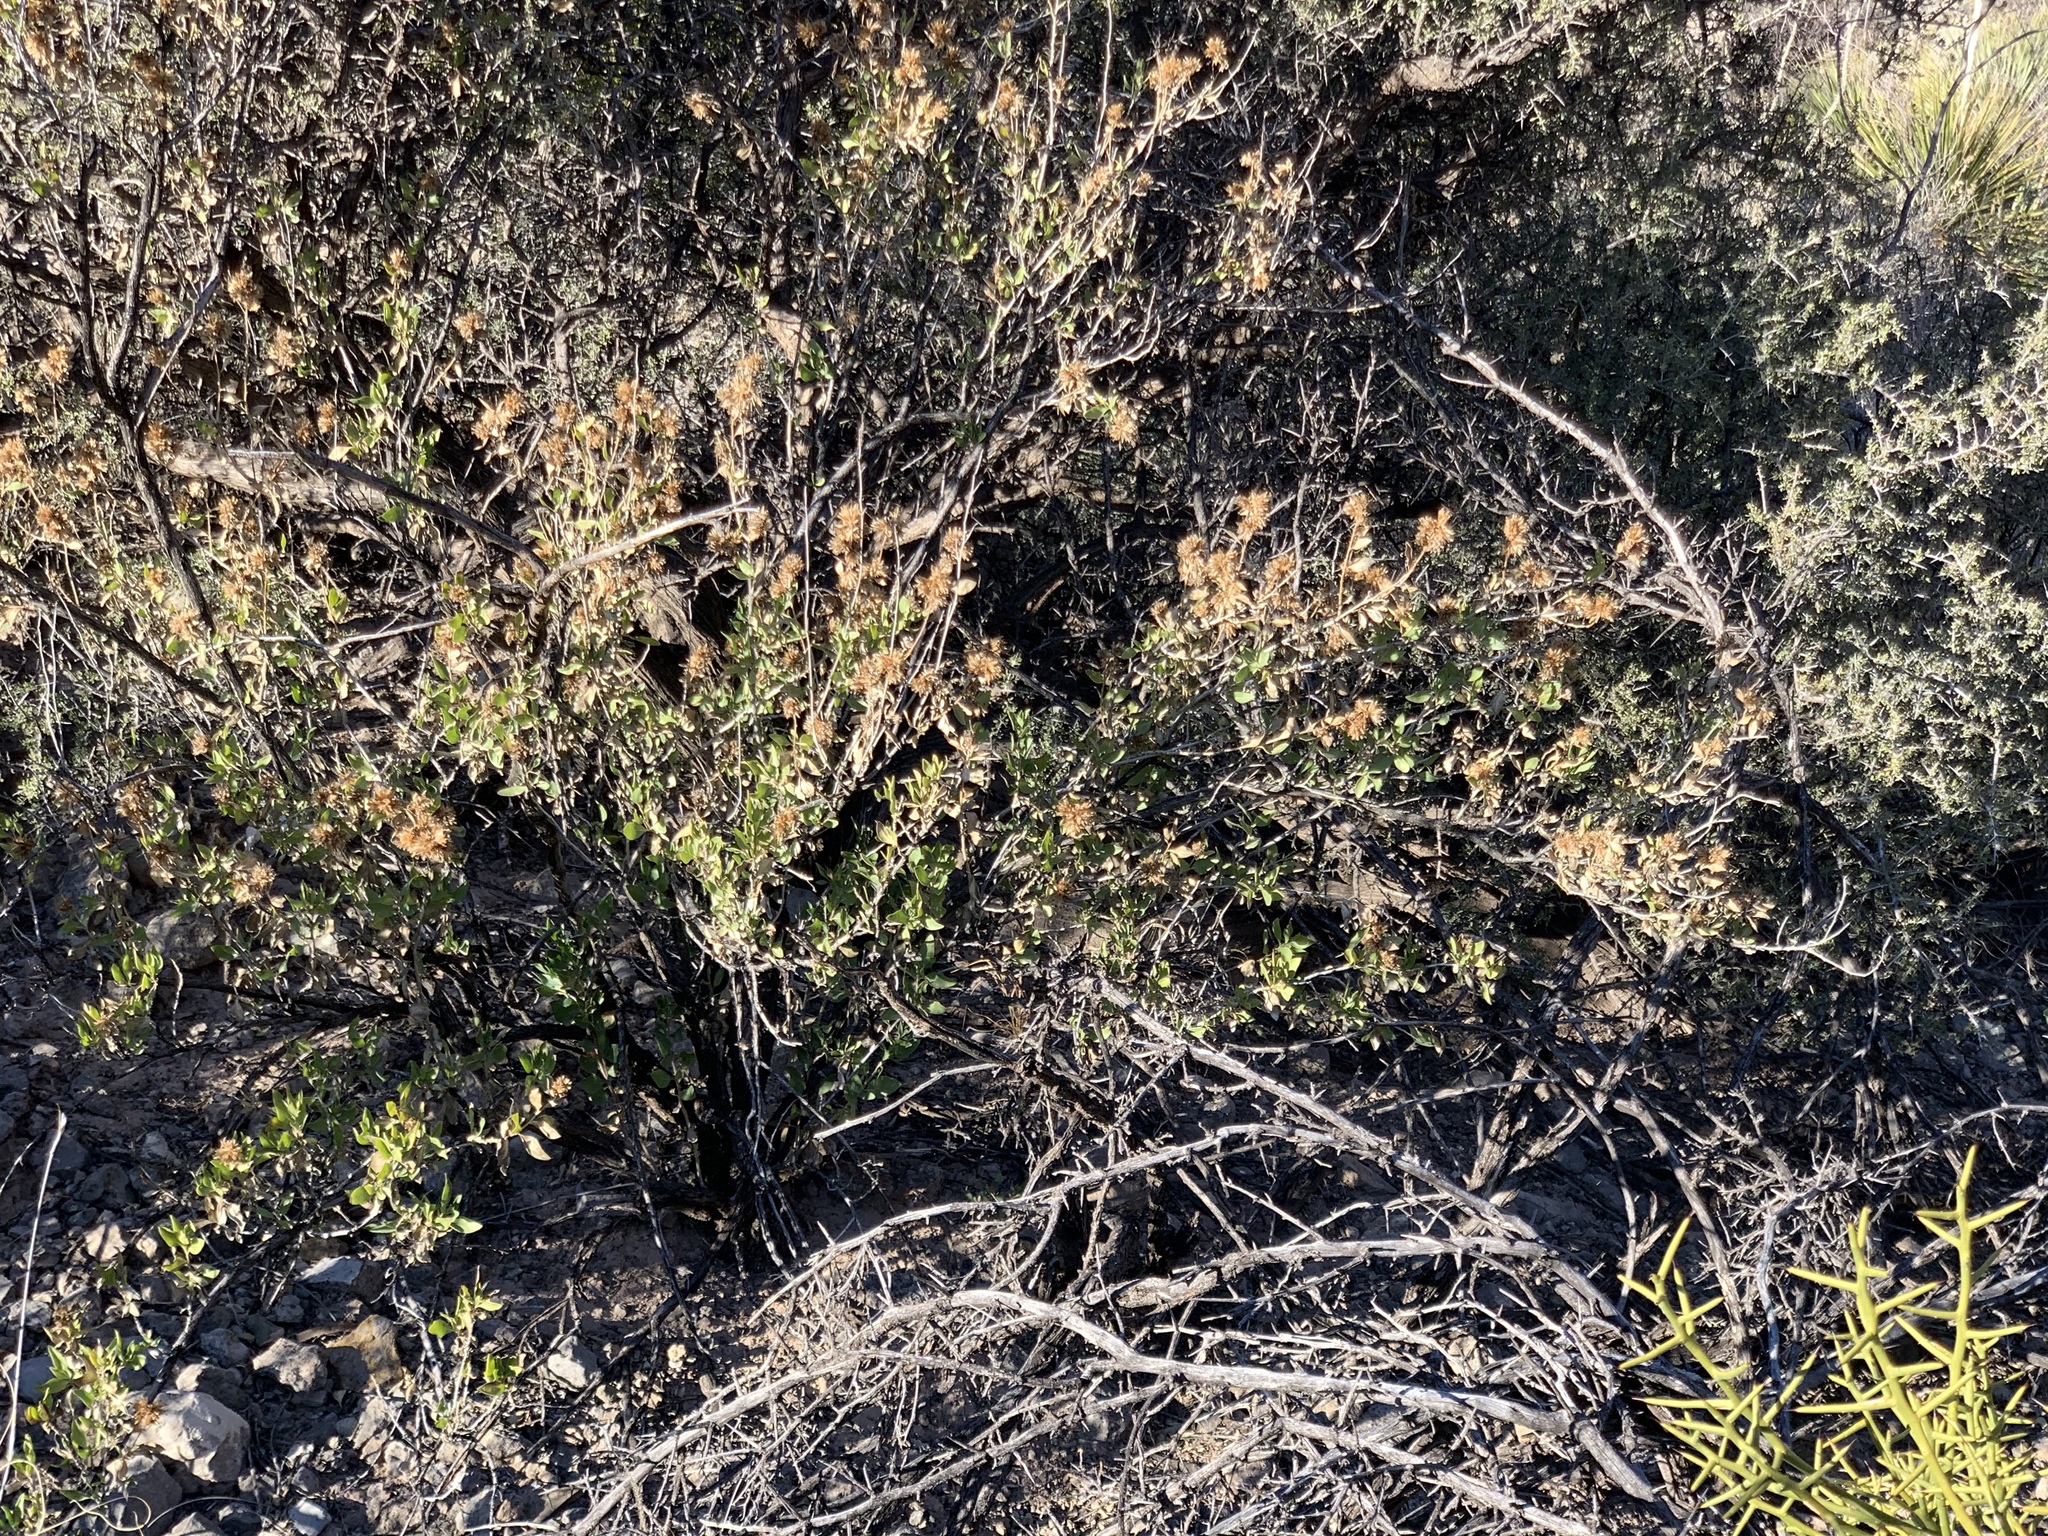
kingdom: Plantae
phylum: Tracheophyta
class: Magnoliopsida
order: Asterales
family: Asteraceae
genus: Flourensia
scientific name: Flourensia cernua
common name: Varnishbush
